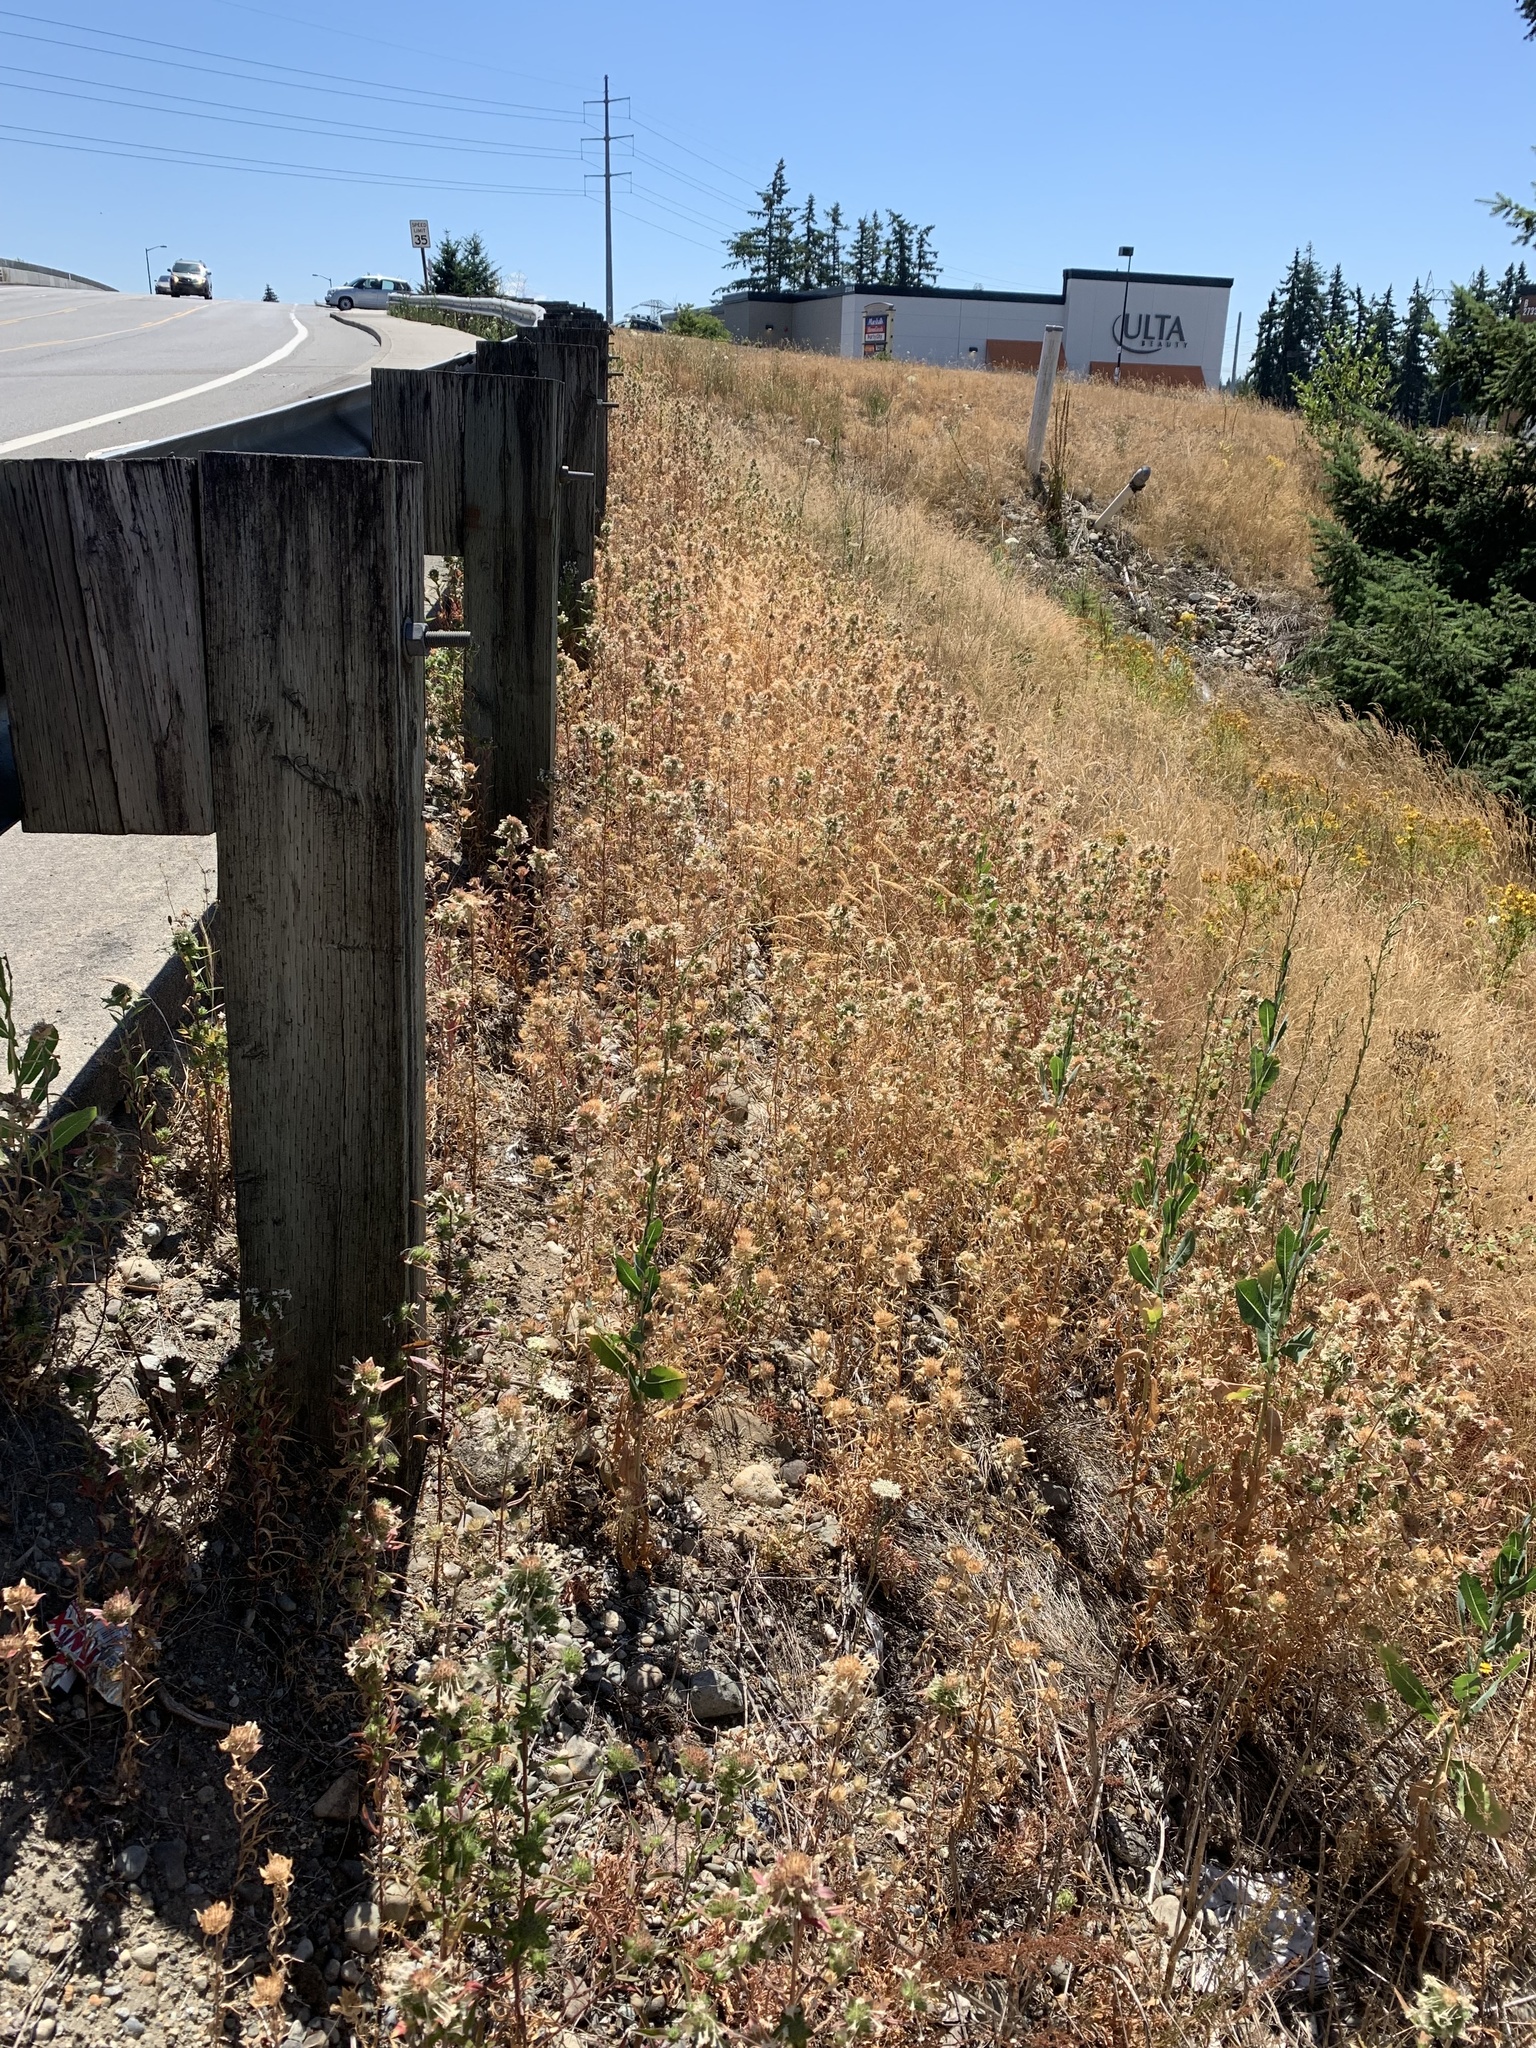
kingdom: Plantae
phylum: Tracheophyta
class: Magnoliopsida
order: Ericales
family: Polemoniaceae
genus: Collomia
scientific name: Collomia grandiflora
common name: California strawflower
